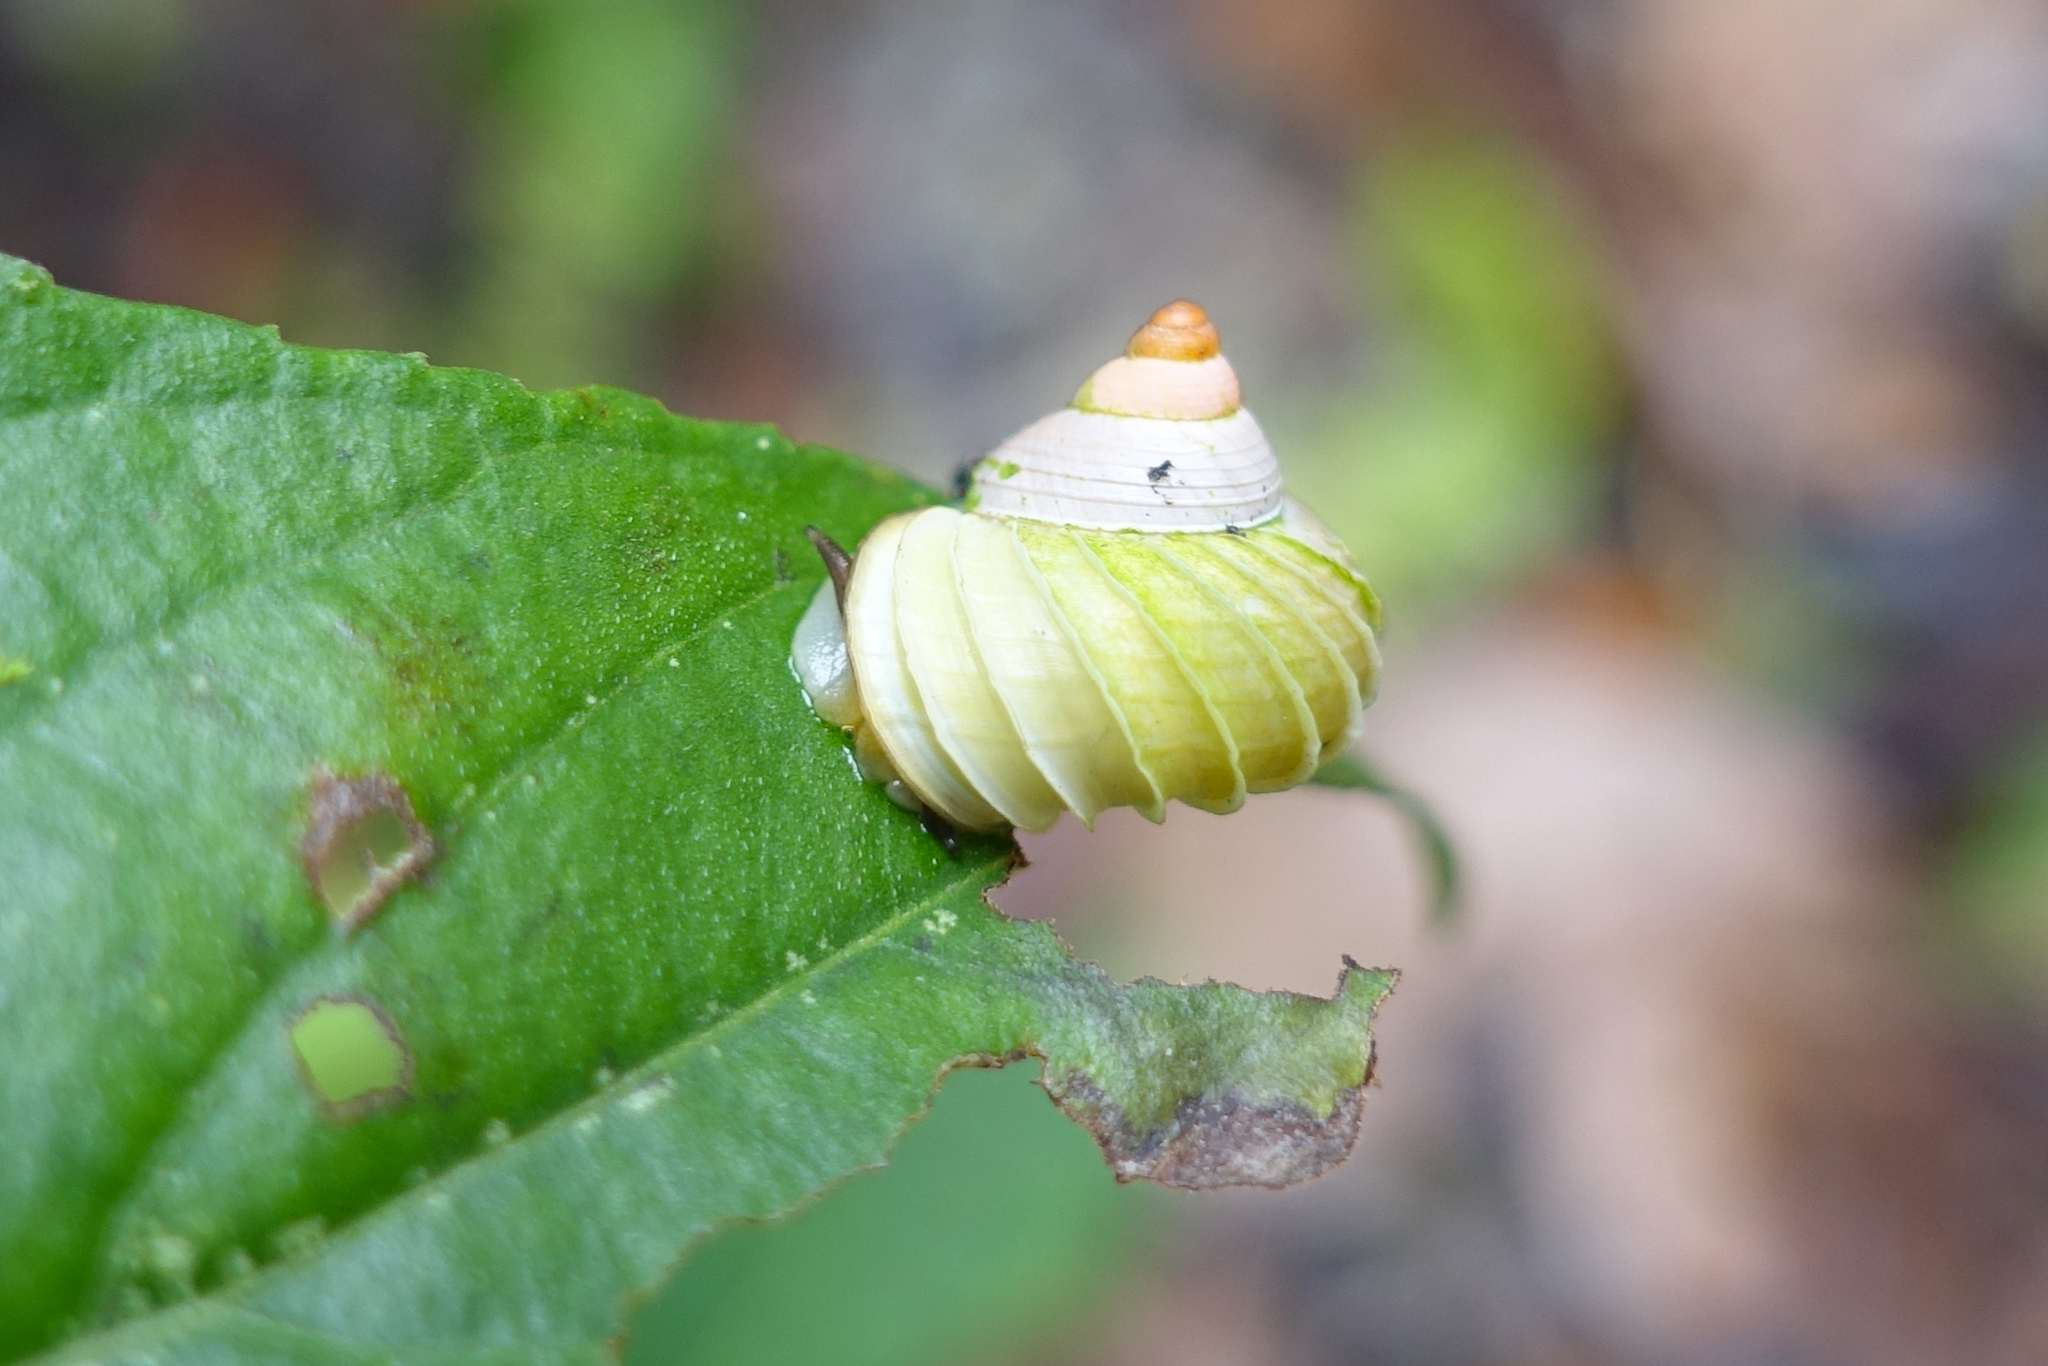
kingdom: Animalia
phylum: Mollusca
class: Gastropoda
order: Architaenioglossa
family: Cyclophoridae
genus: Leptopoma
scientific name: Leptopoma lamellatum
